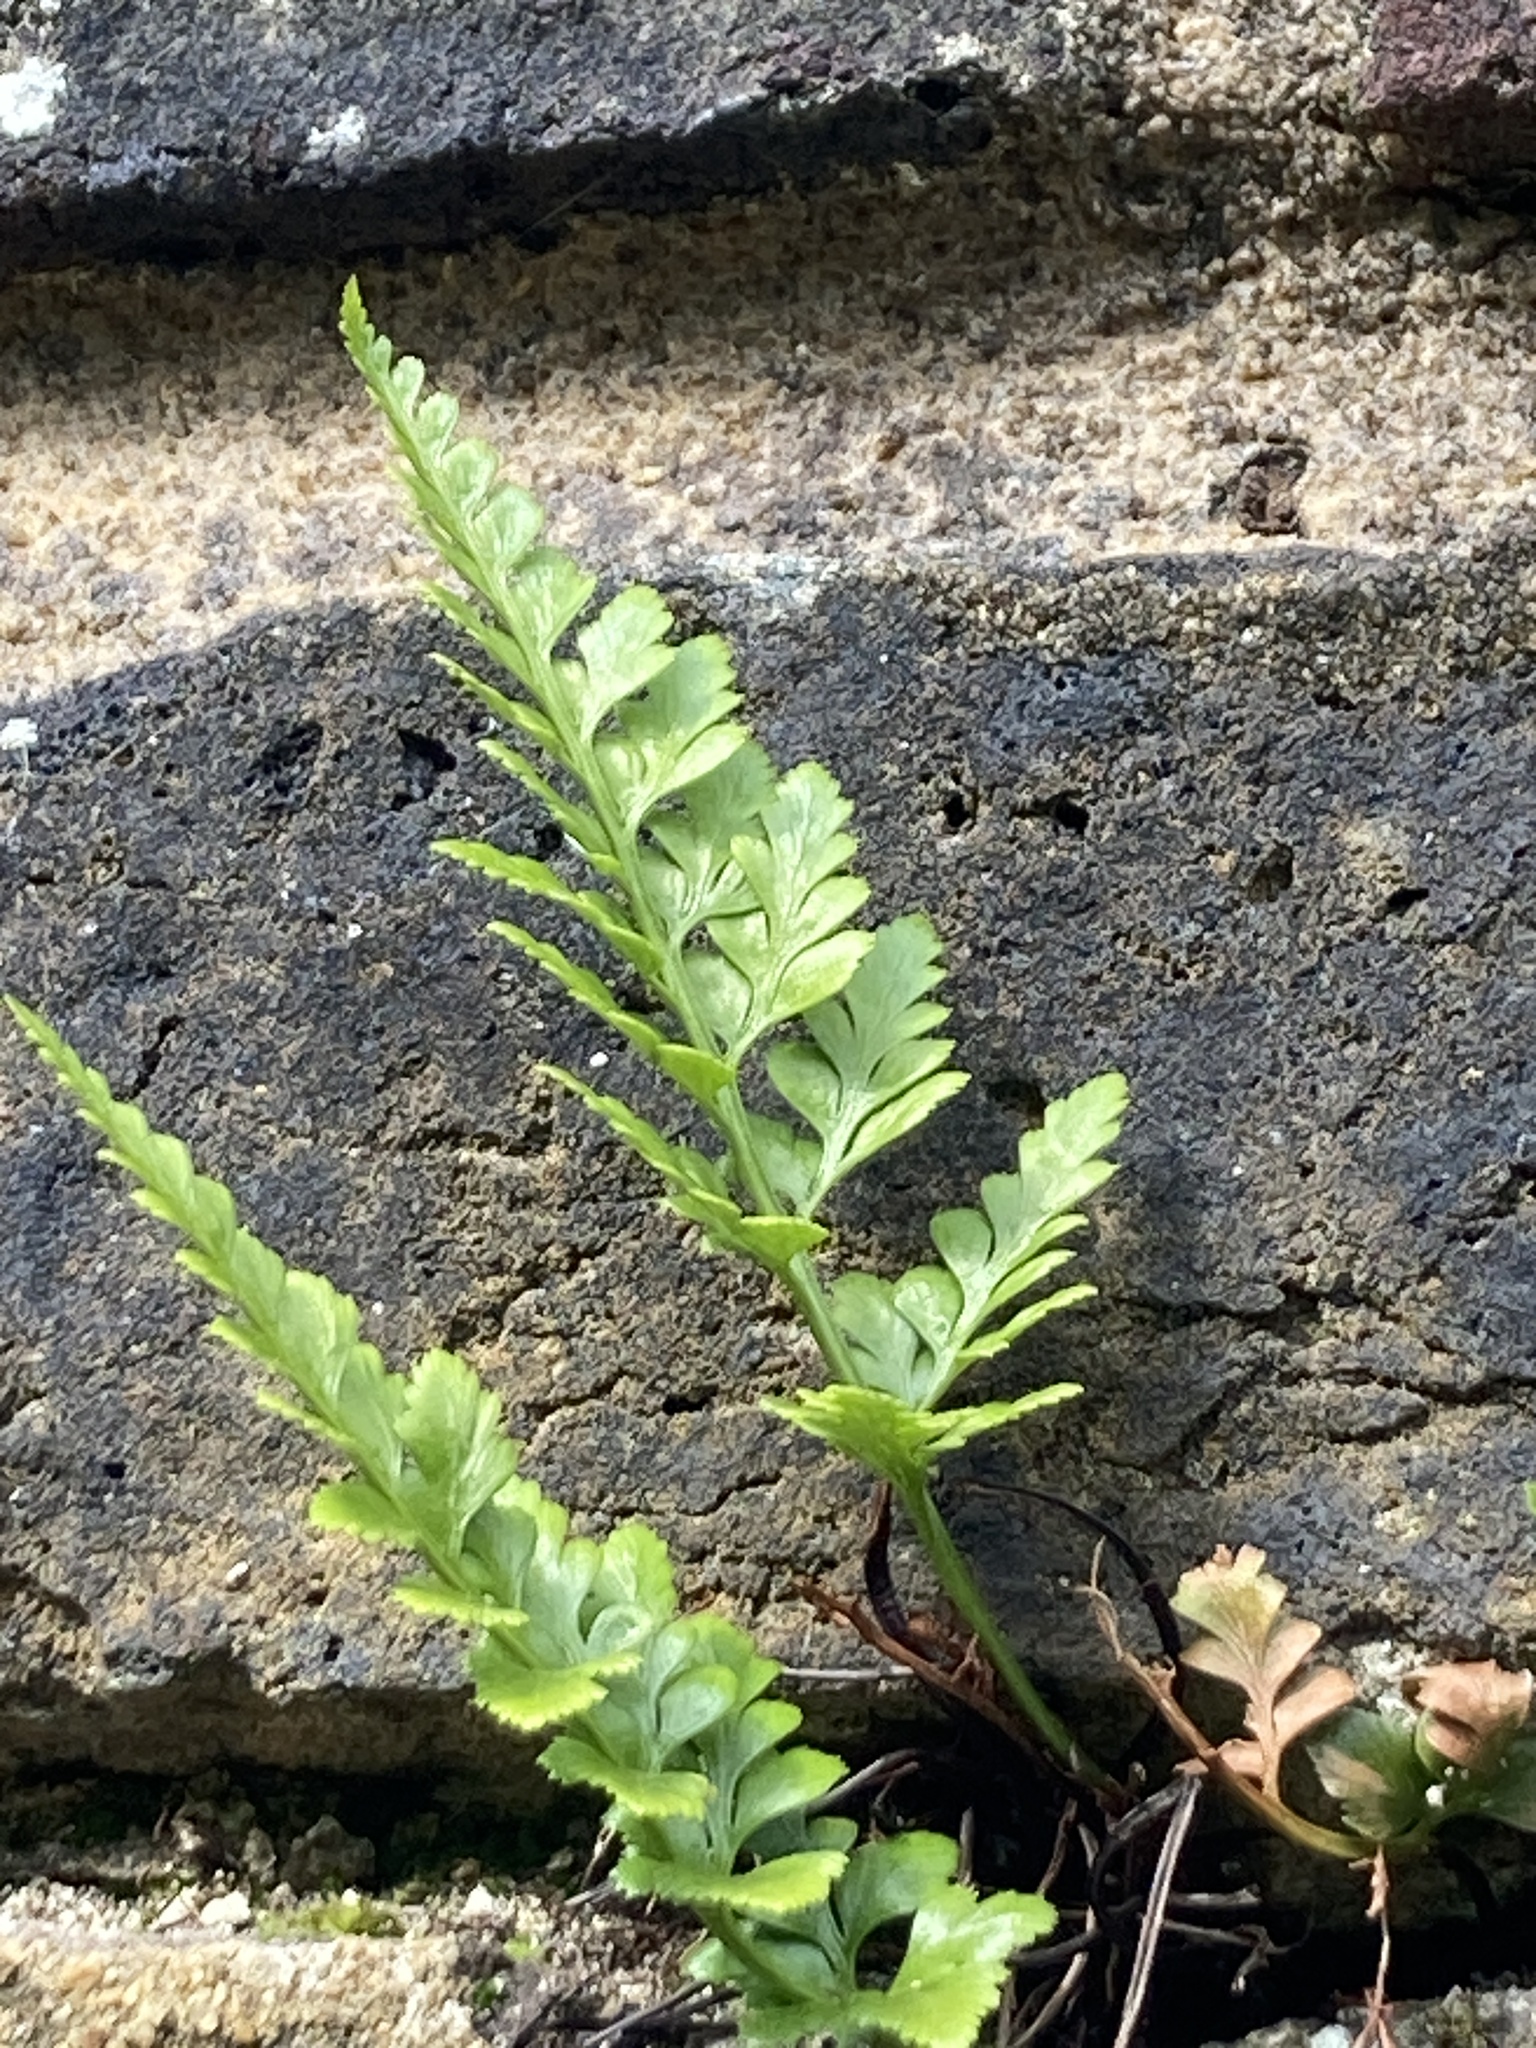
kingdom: Plantae
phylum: Tracheophyta
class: Polypodiopsida
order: Polypodiales
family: Aspleniaceae
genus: Asplenium
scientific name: Asplenium adiantum-nigrum
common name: Black spleenwort
